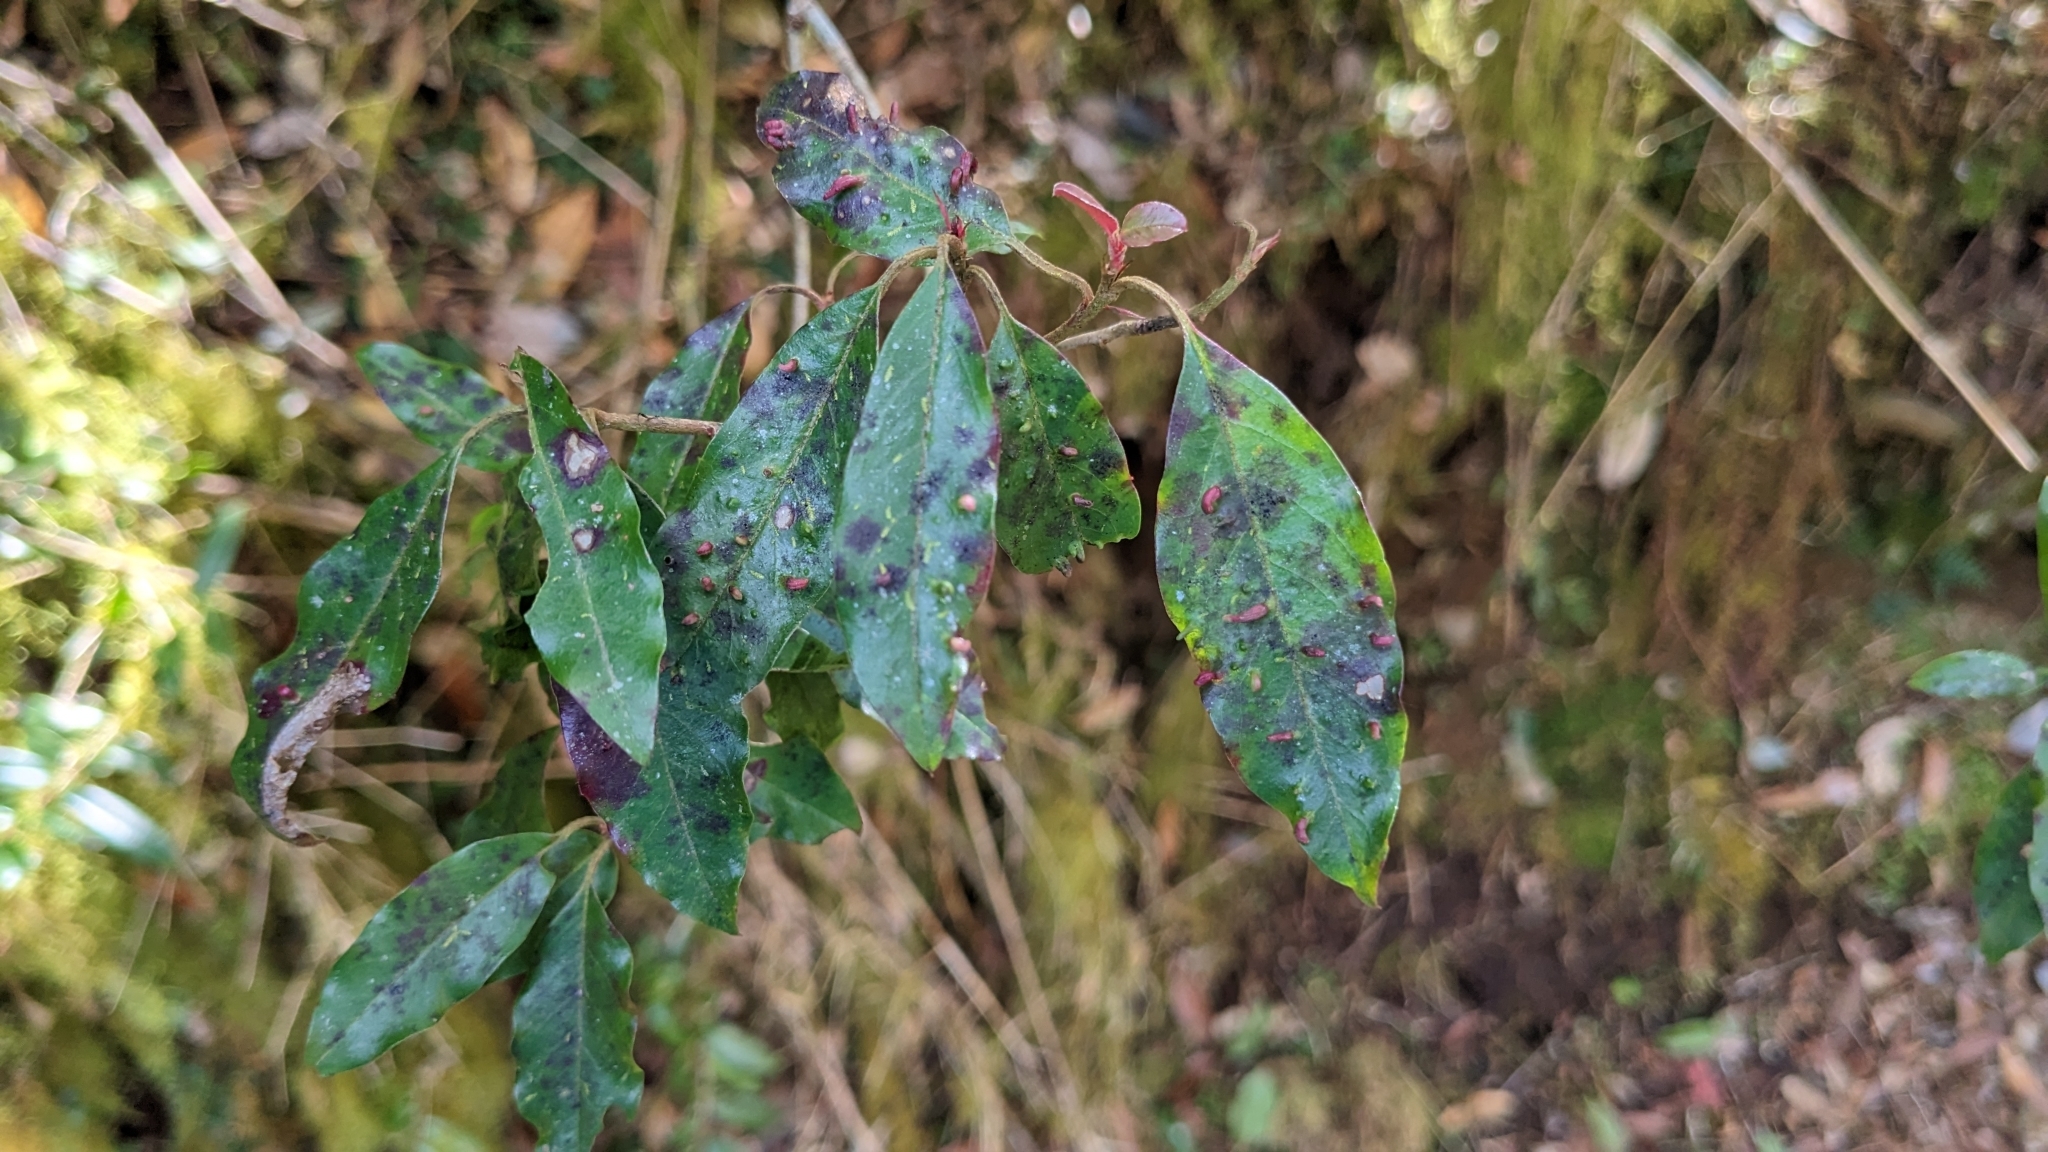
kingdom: Plantae
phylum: Tracheophyta
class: Magnoliopsida
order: Rosales
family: Rosaceae
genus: Stranvaesia
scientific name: Stranvaesia davidiana
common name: Chinese photinia
